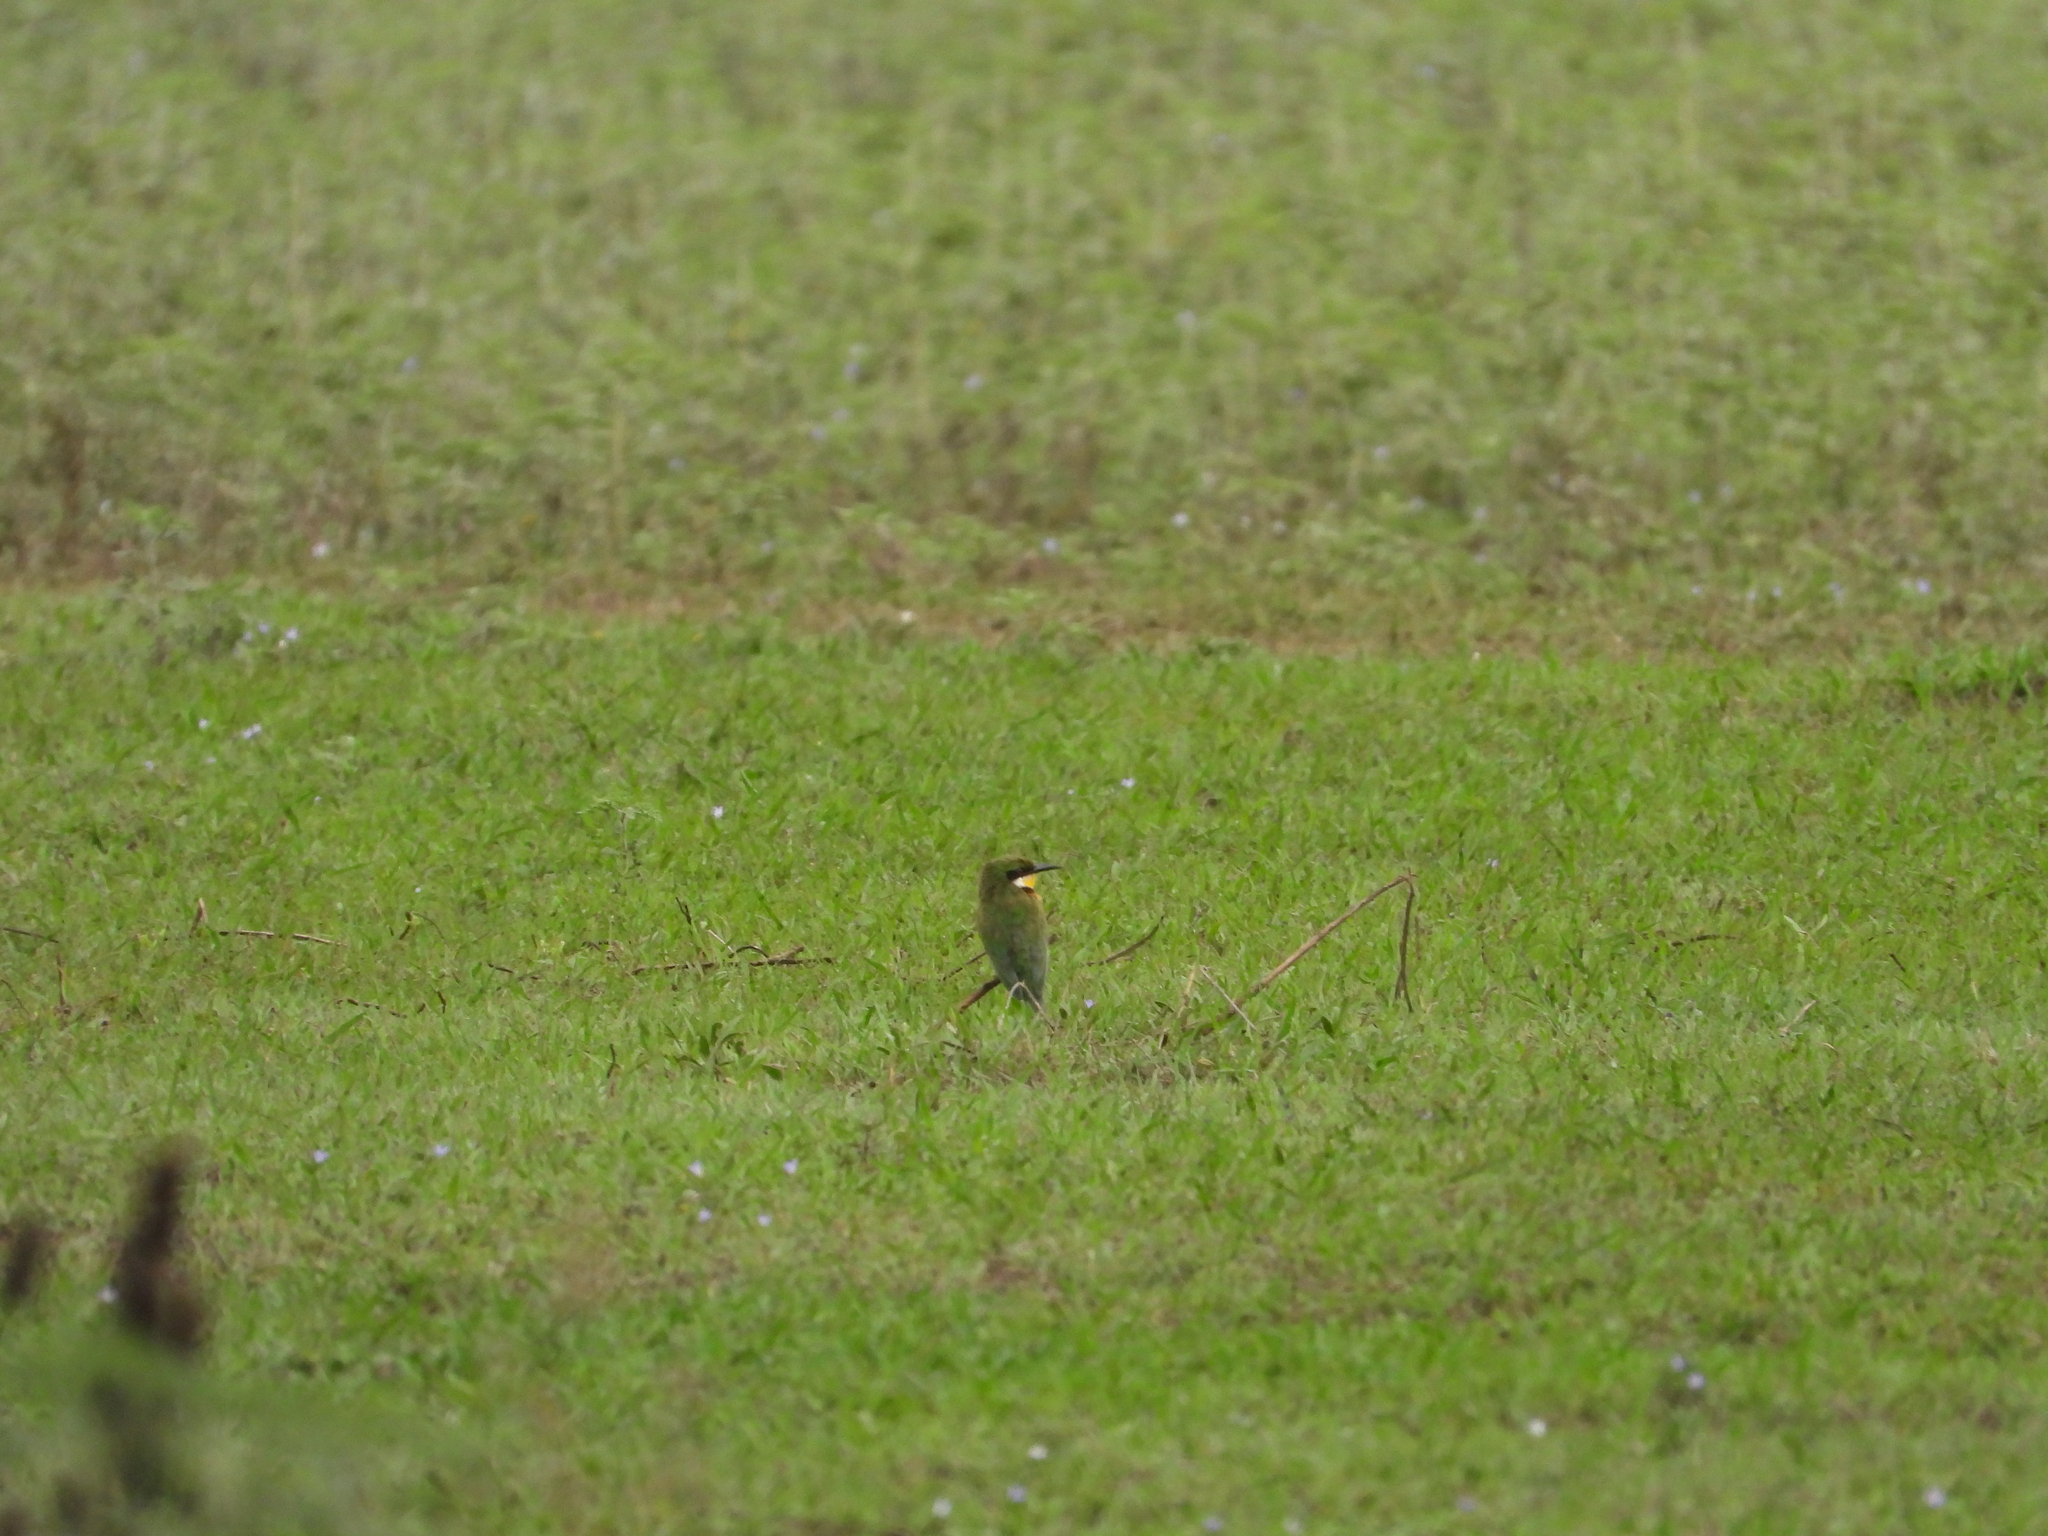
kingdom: Animalia
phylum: Chordata
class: Aves
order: Coraciiformes
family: Meropidae
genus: Merops
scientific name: Merops variegatus
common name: Blue-breasted bee-eater
